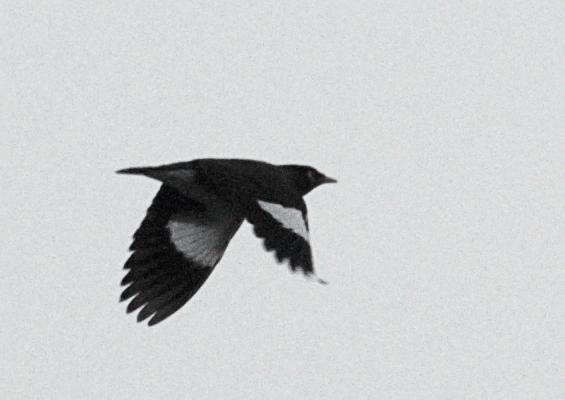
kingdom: Animalia
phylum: Chordata
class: Aves
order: Passeriformes
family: Sturnidae
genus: Acridotheres
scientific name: Acridotheres tristis
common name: Common myna
